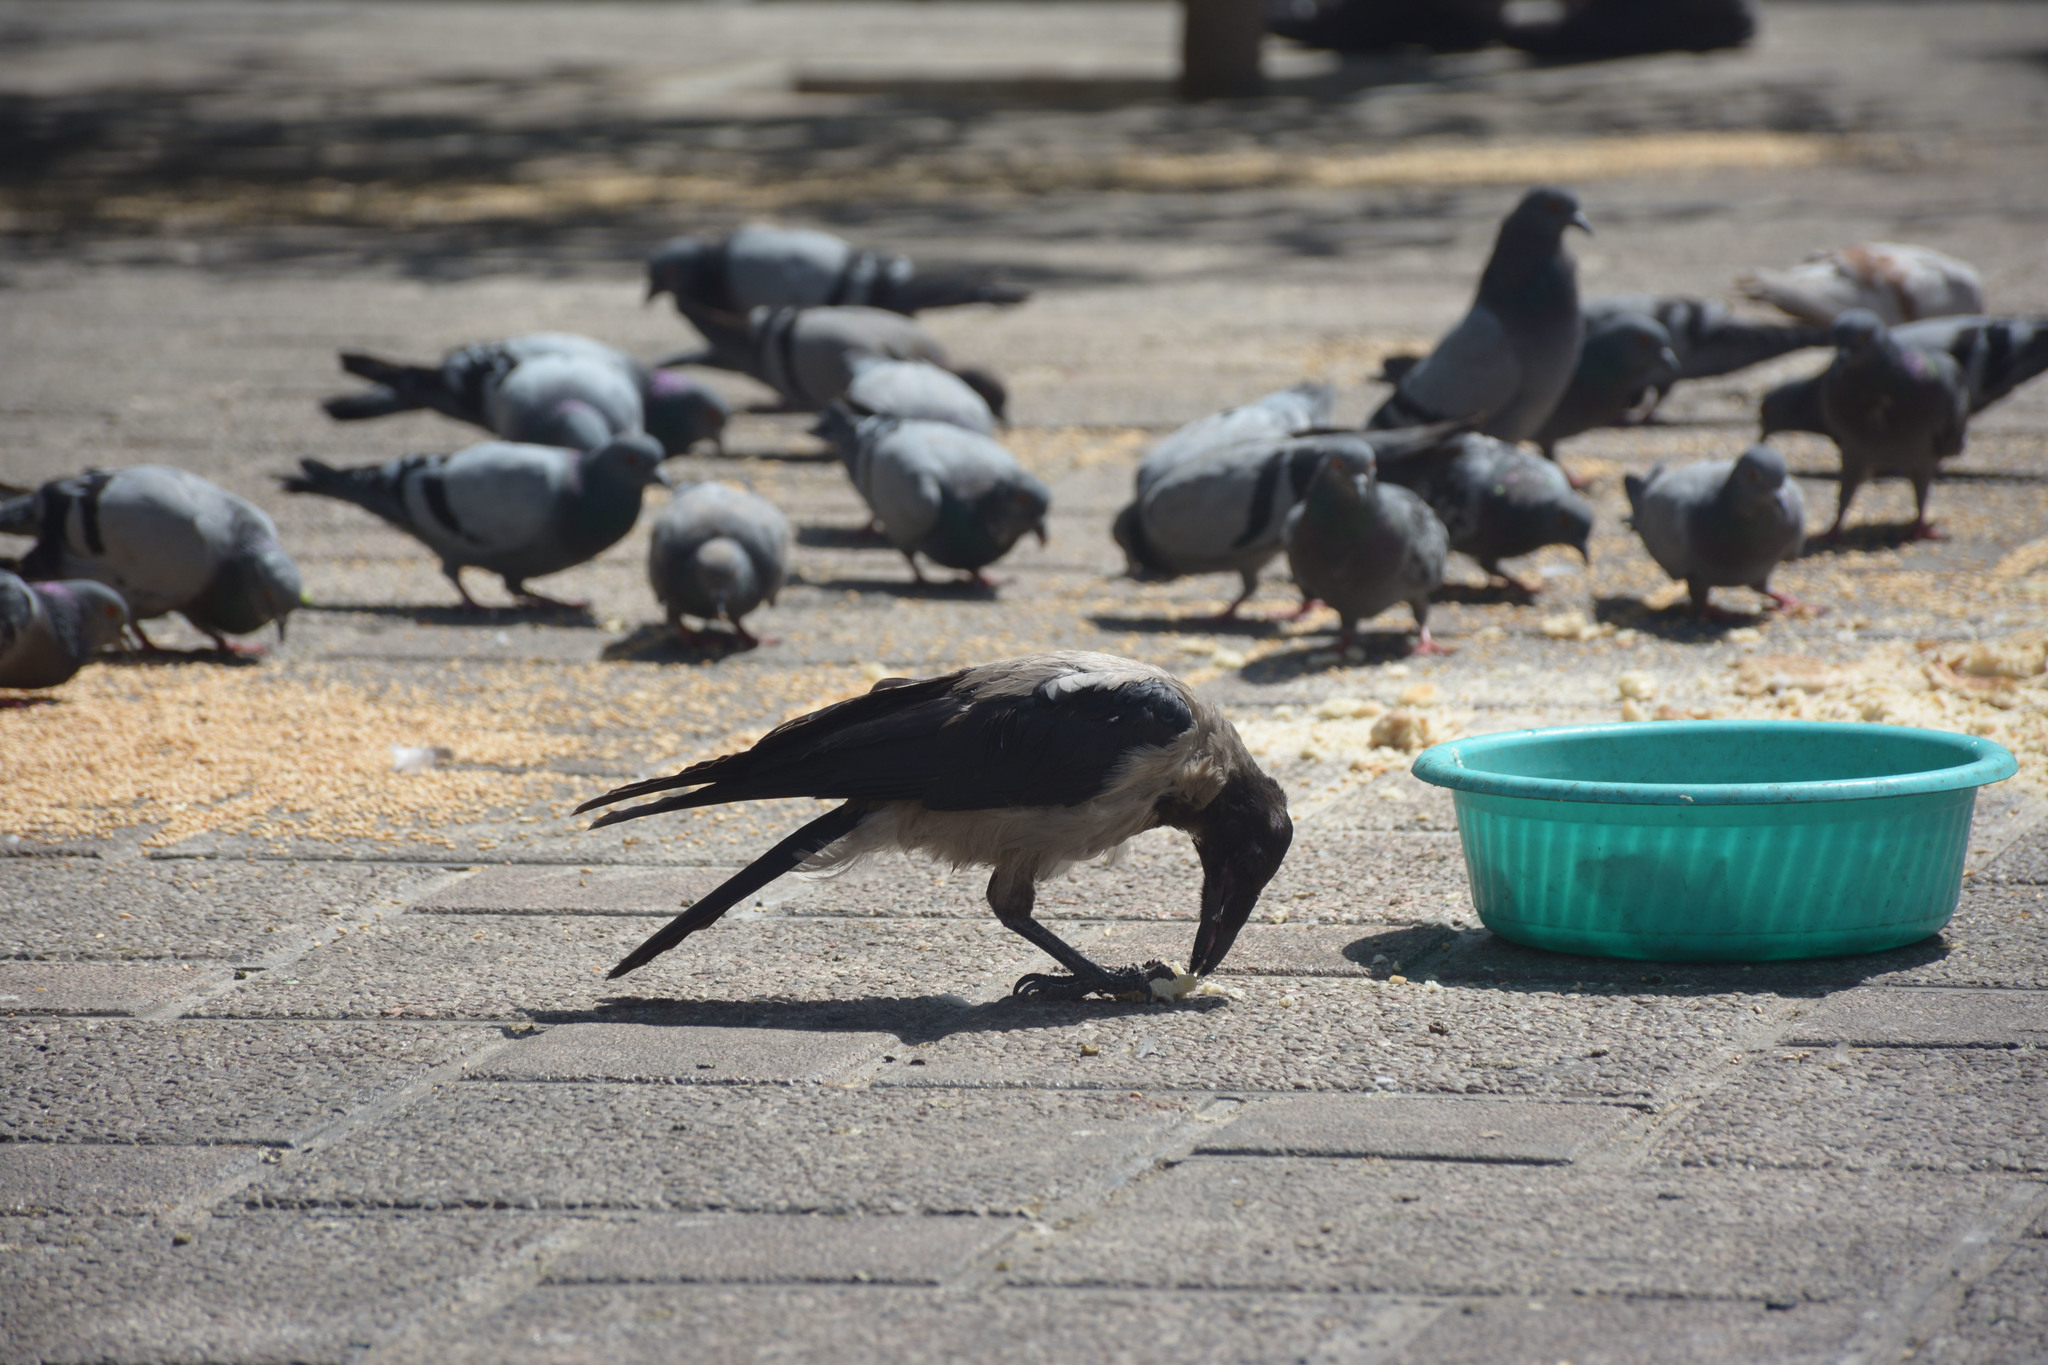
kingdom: Animalia
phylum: Chordata
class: Aves
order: Passeriformes
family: Corvidae
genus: Corvus
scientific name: Corvus cornix
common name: Hooded crow
